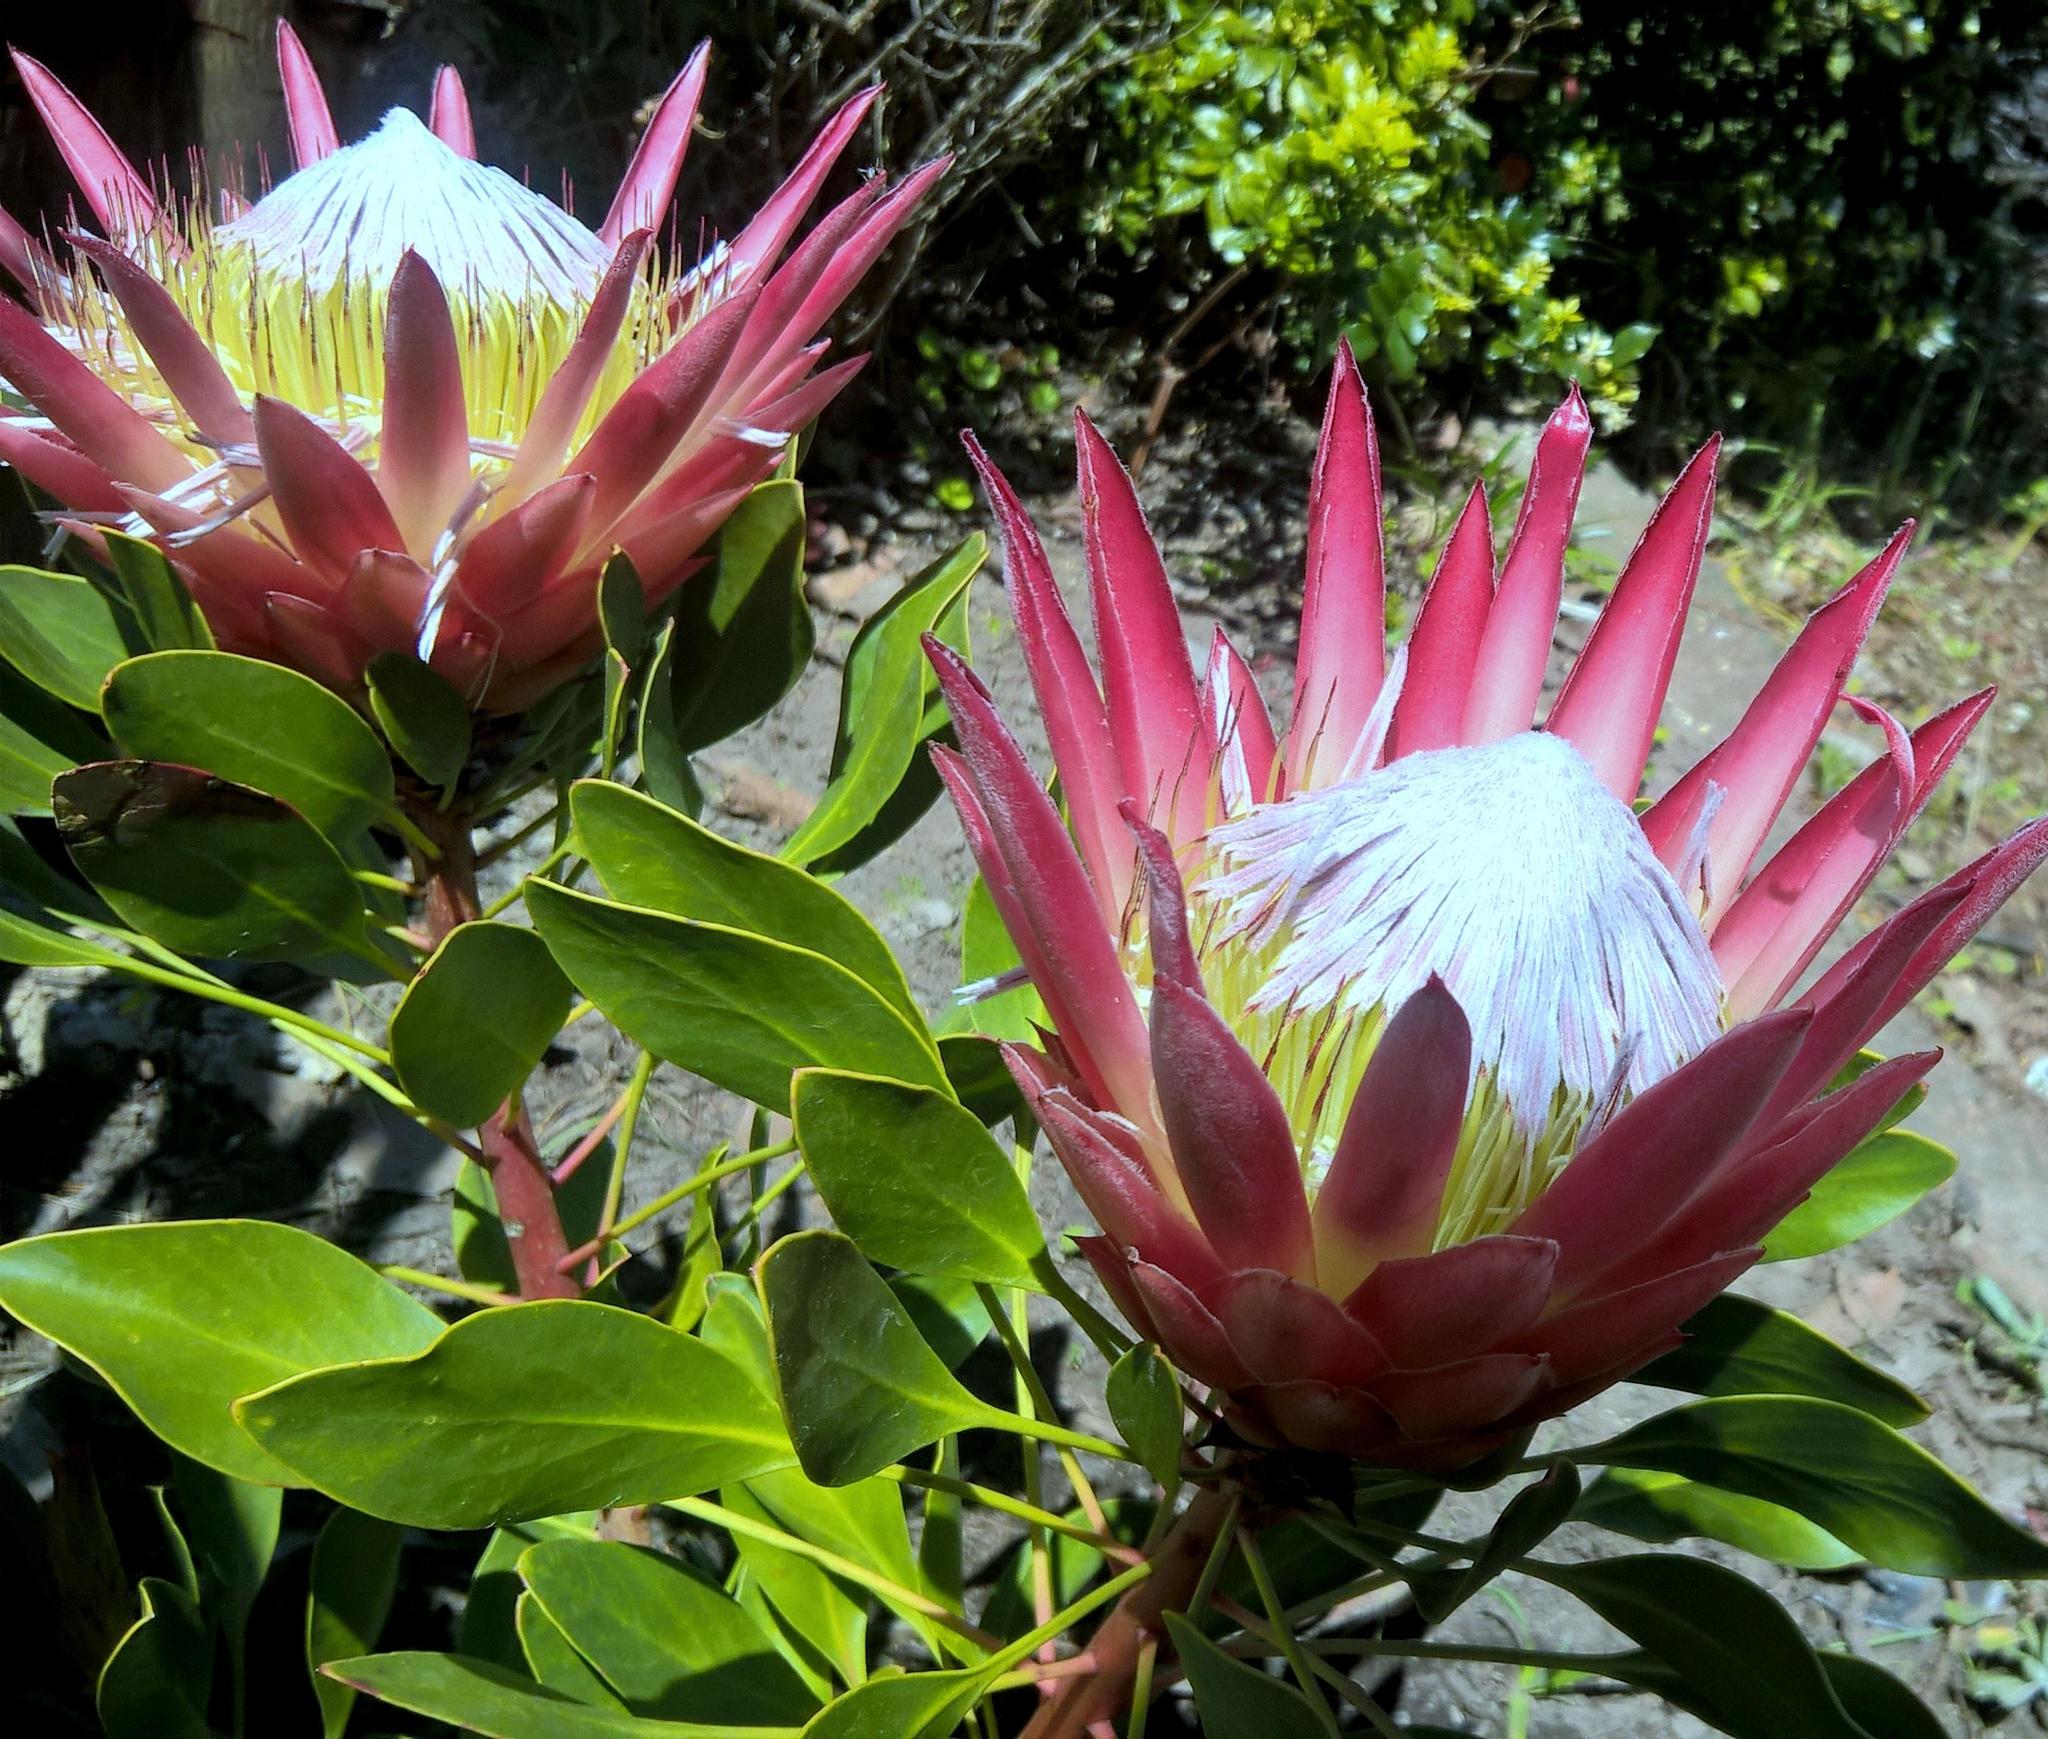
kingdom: Plantae
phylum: Tracheophyta
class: Magnoliopsida
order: Proteales
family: Proteaceae
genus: Protea
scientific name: Protea cynaroides
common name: King protea
